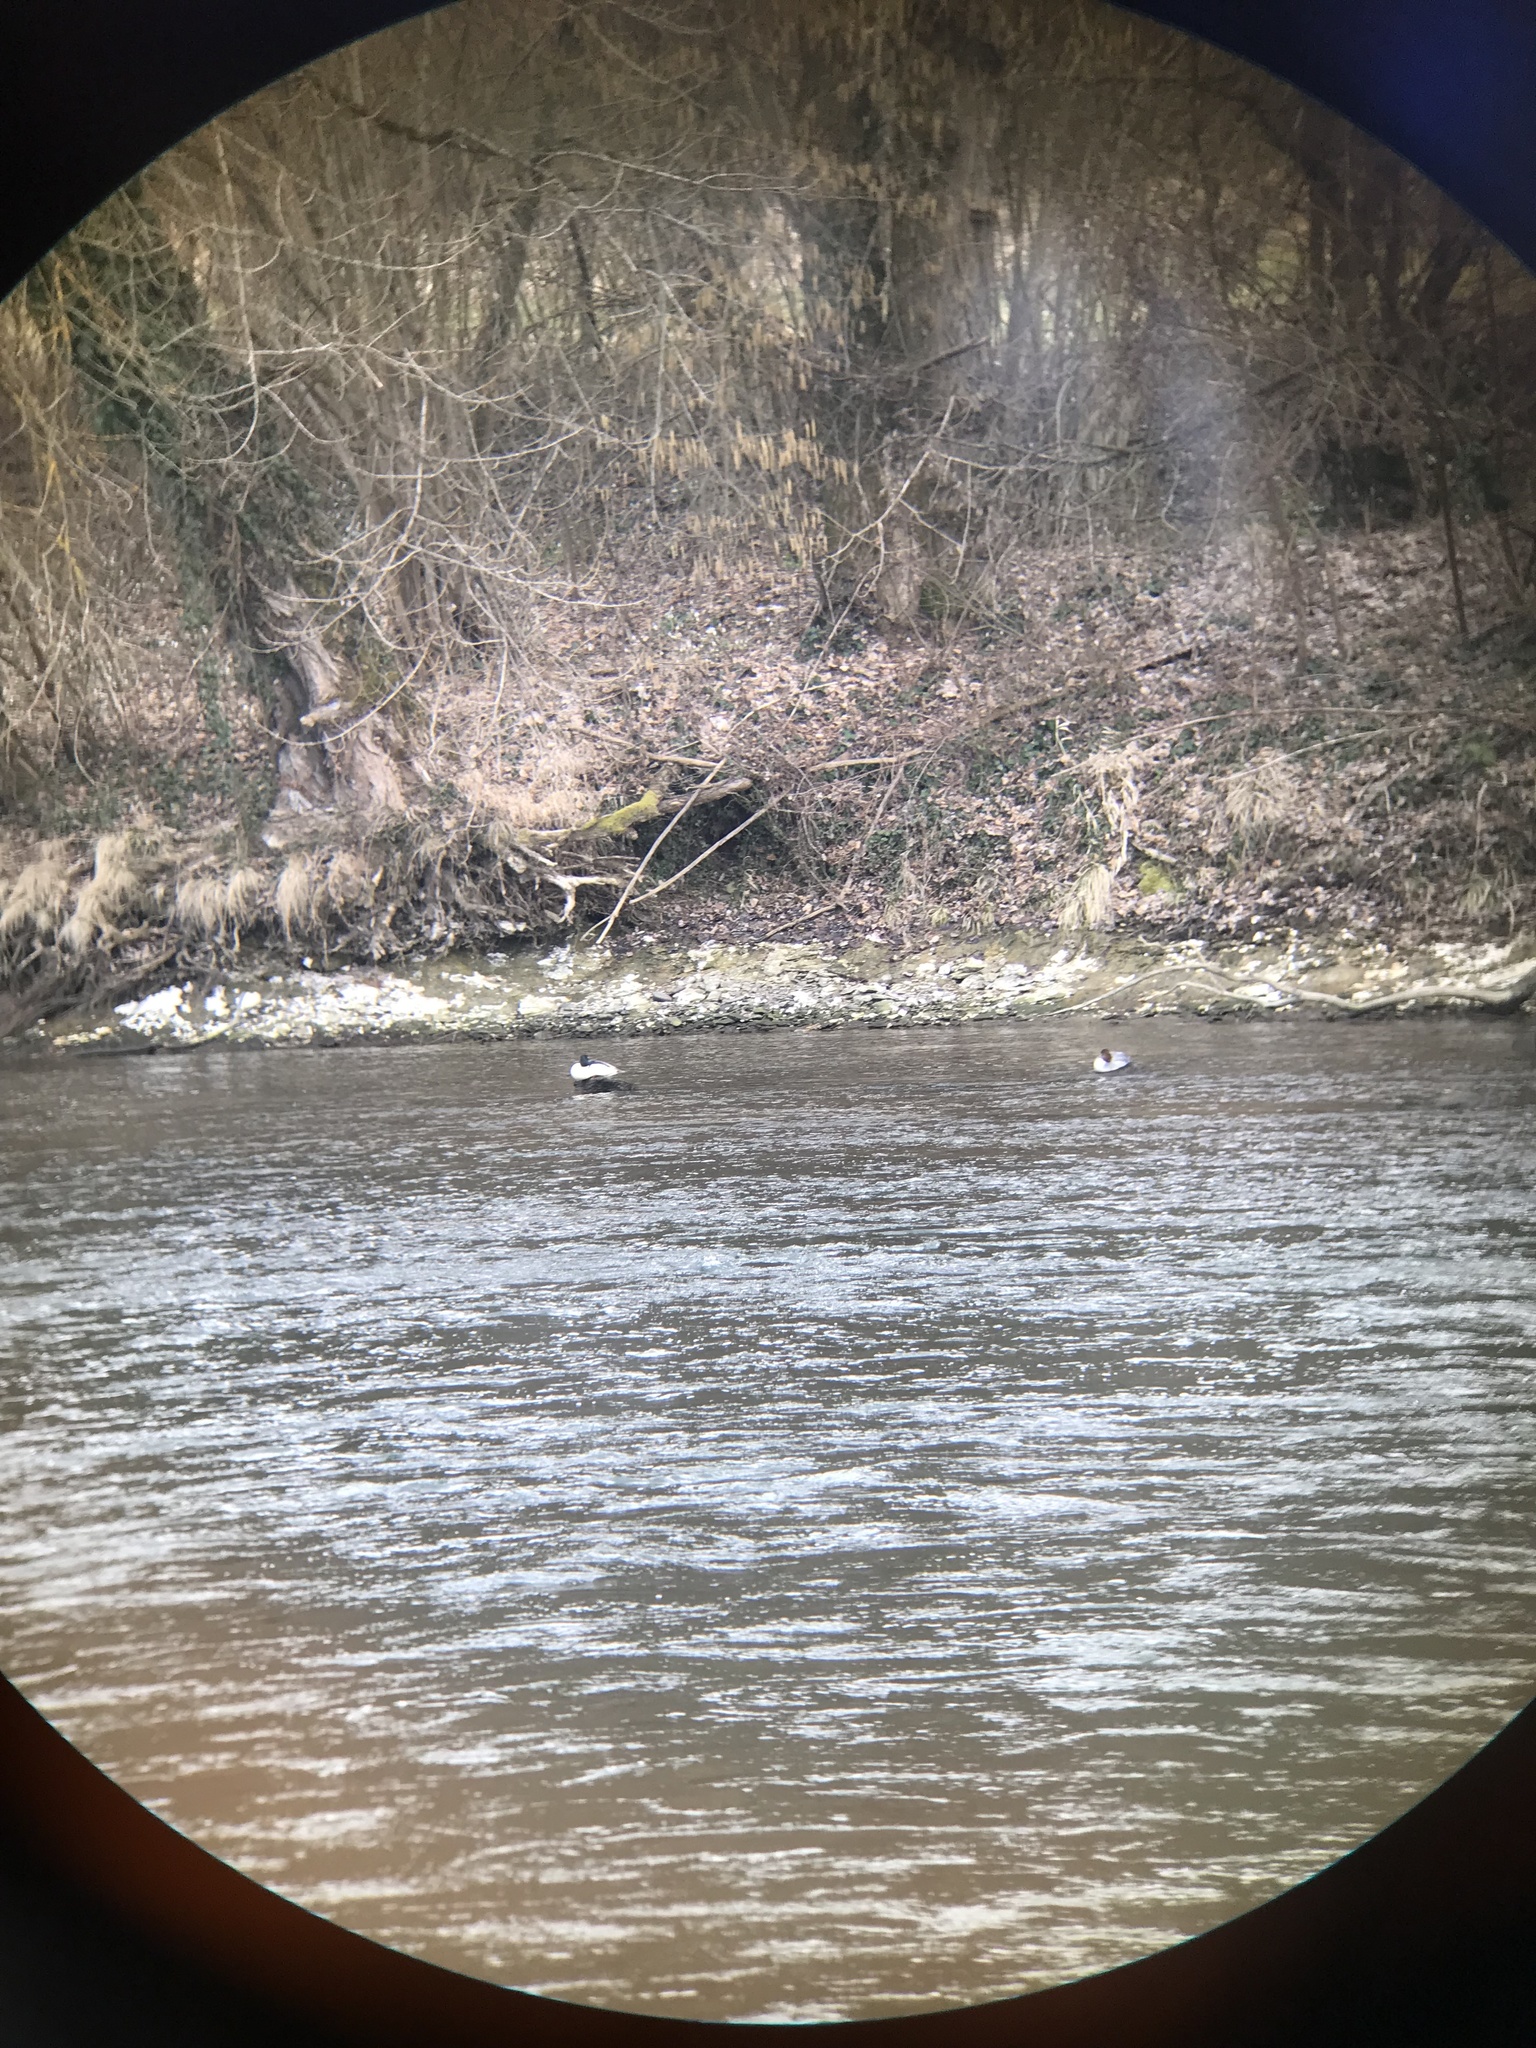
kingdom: Animalia
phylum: Chordata
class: Aves
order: Anseriformes
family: Anatidae
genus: Mergus
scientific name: Mergus merganser
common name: Common merganser
